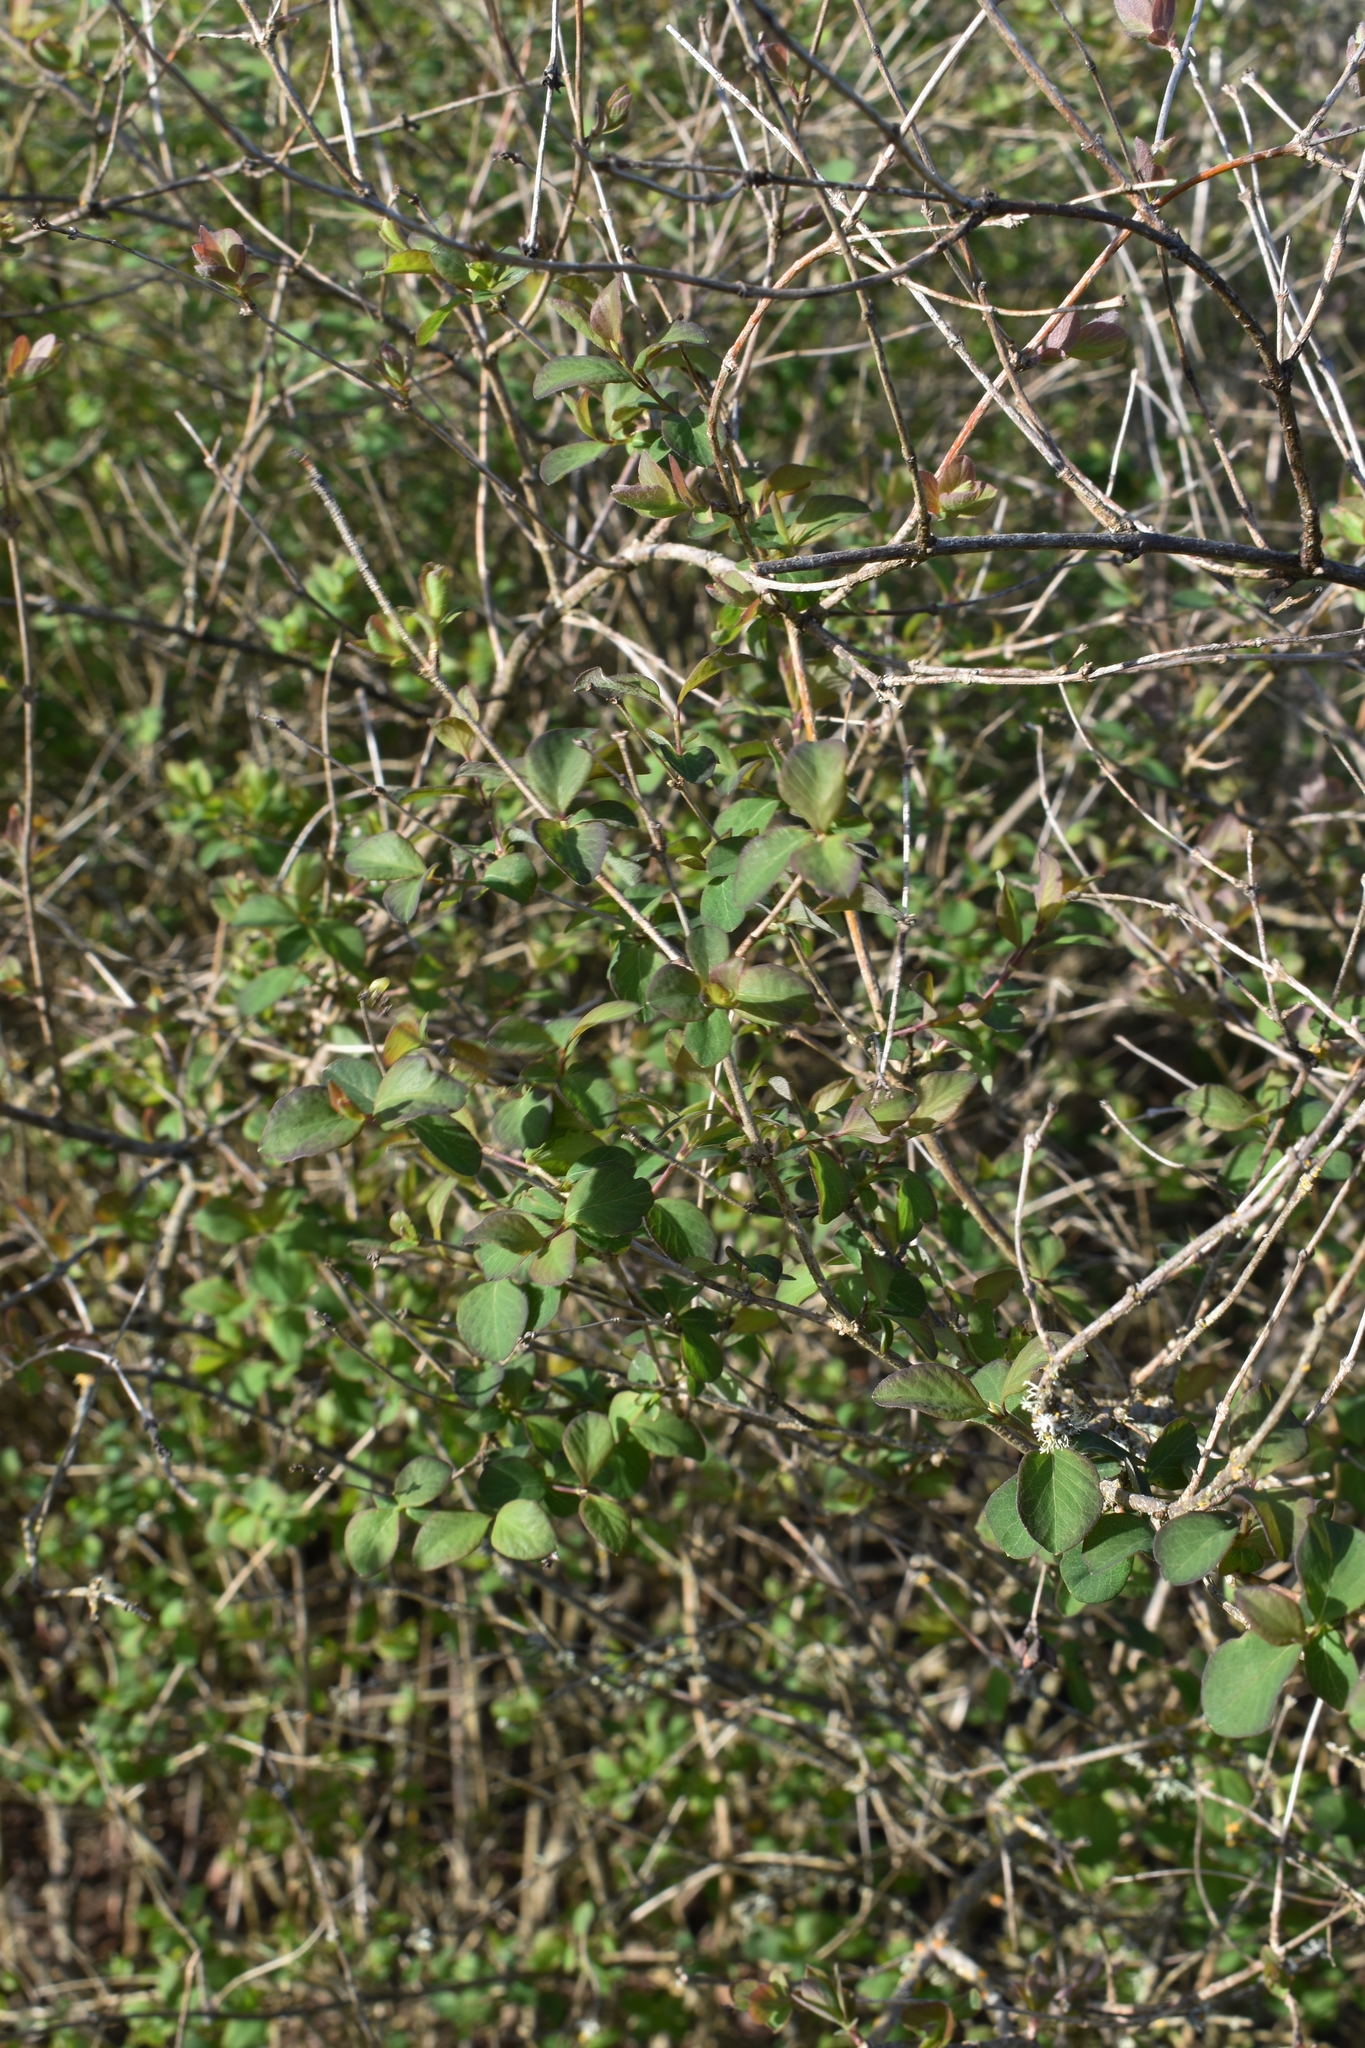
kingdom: Plantae
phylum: Tracheophyta
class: Magnoliopsida
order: Dipsacales
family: Caprifoliaceae
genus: Symphoricarpos
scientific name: Symphoricarpos albus
